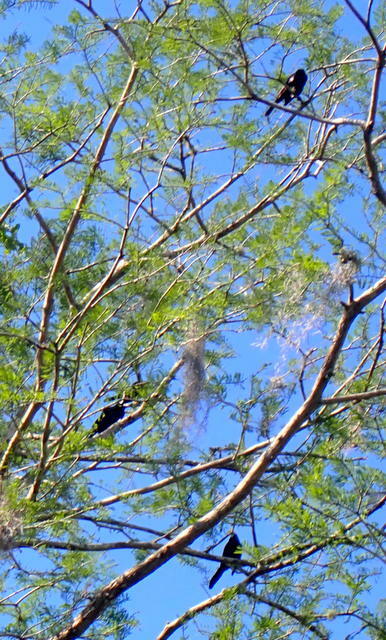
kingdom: Animalia
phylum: Chordata
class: Aves
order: Passeriformes
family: Icteridae
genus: Agelaius
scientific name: Agelaius phoeniceus
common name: Red-winged blackbird
